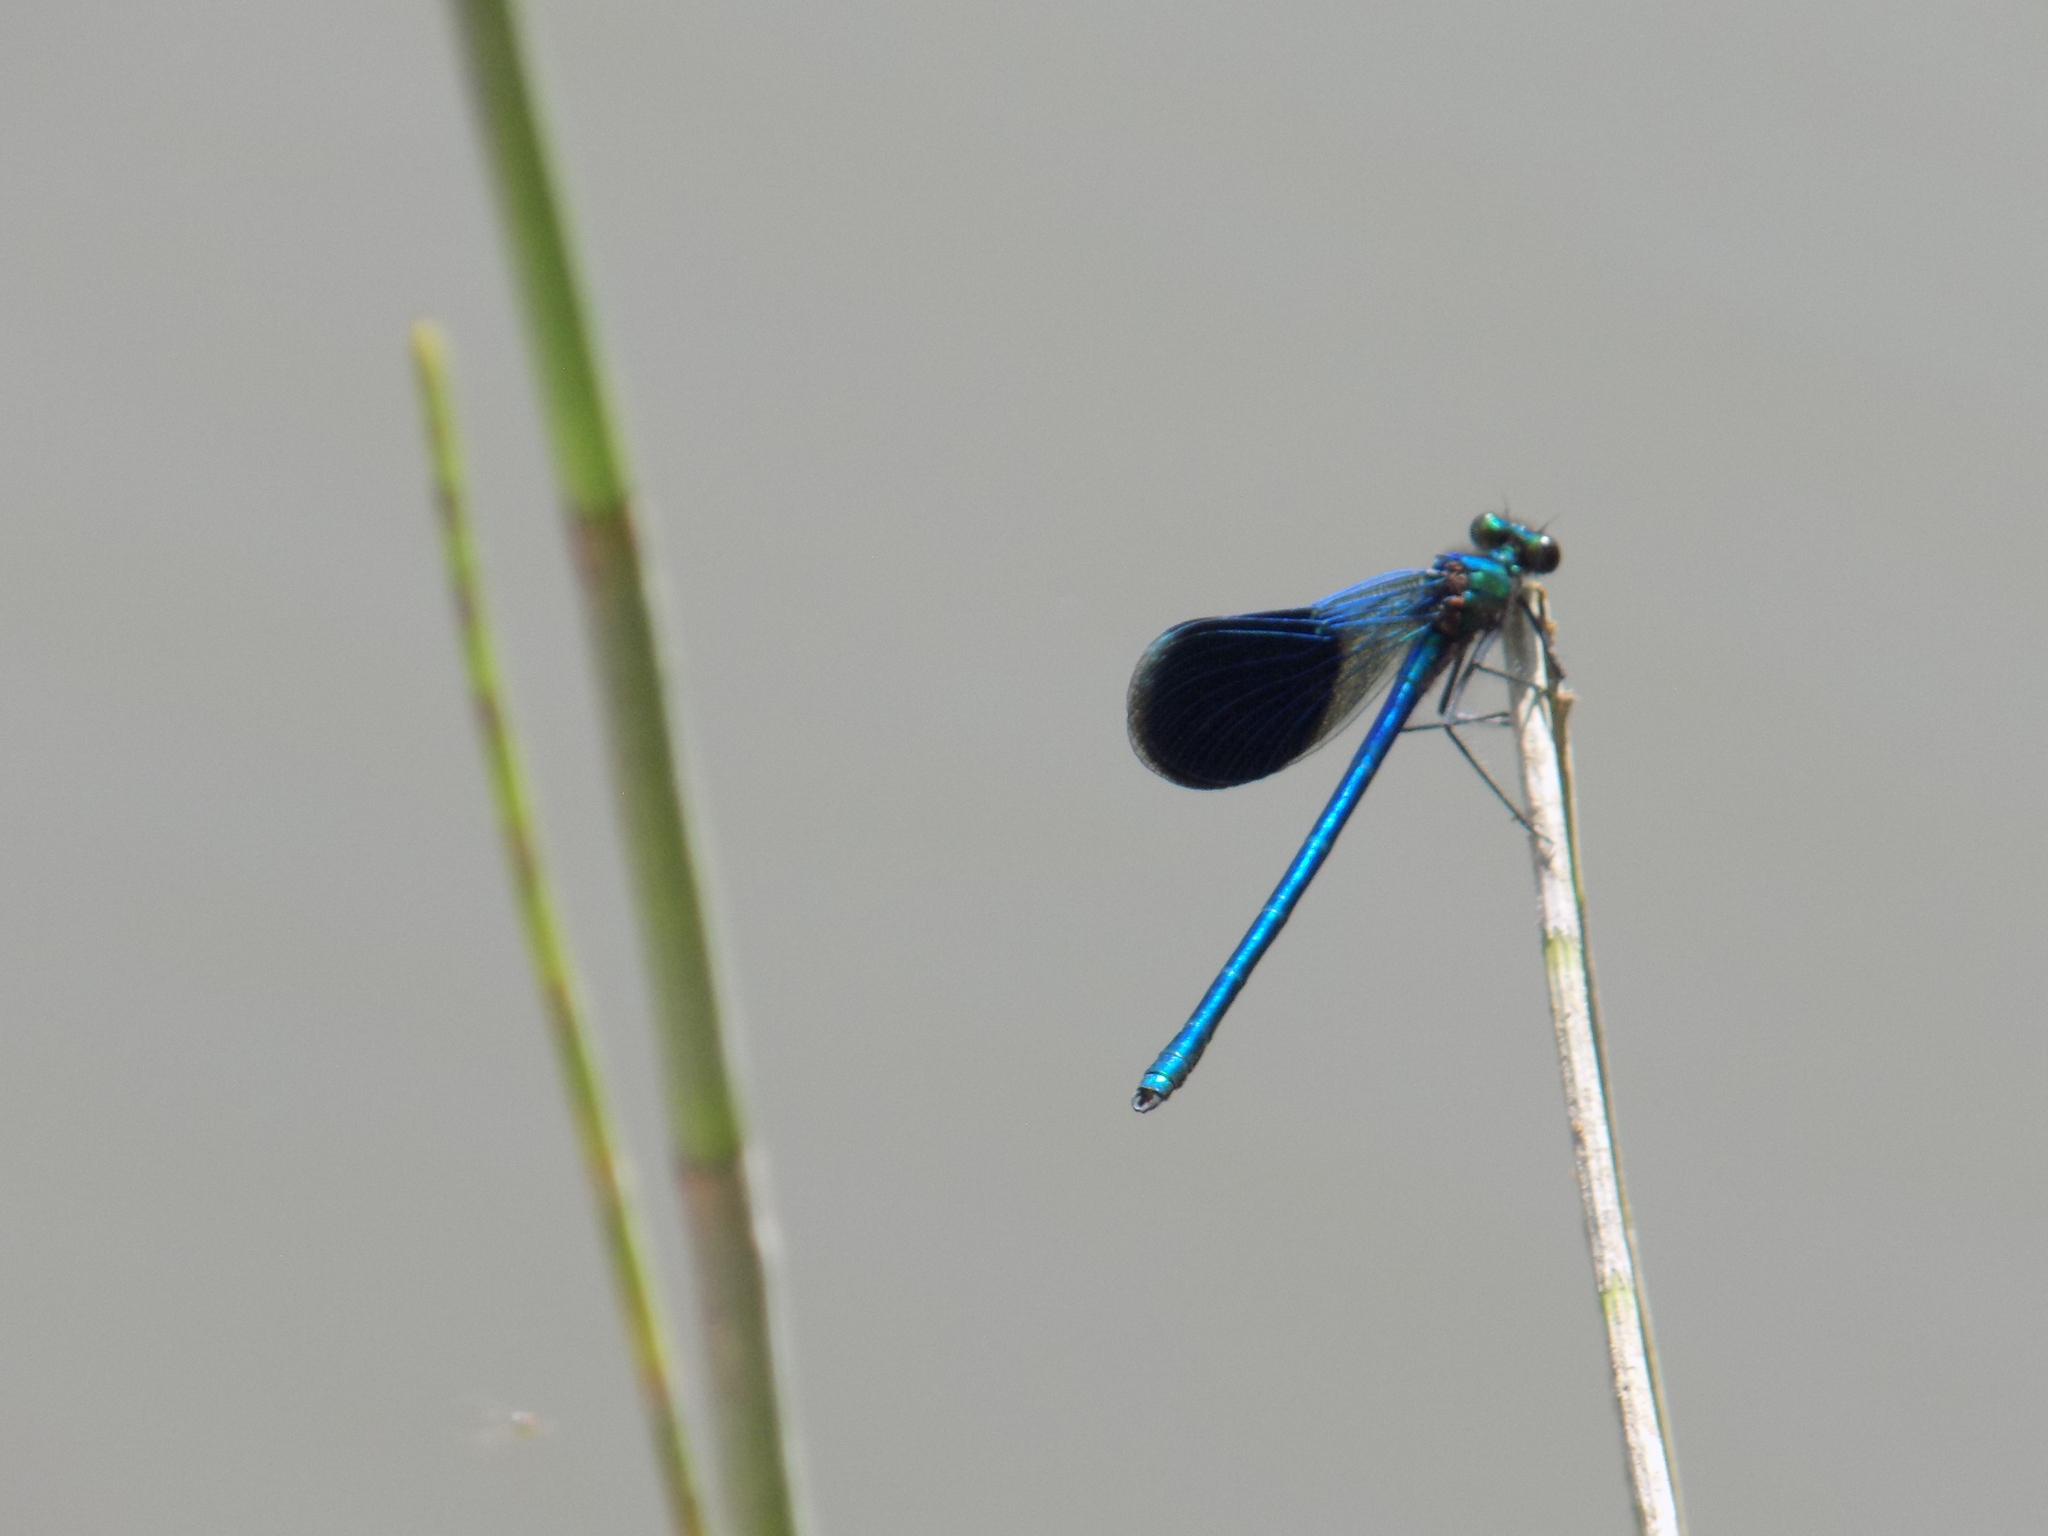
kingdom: Animalia
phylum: Arthropoda
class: Insecta
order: Odonata
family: Calopterygidae
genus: Calopteryx
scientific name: Calopteryx splendens
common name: Banded demoiselle
